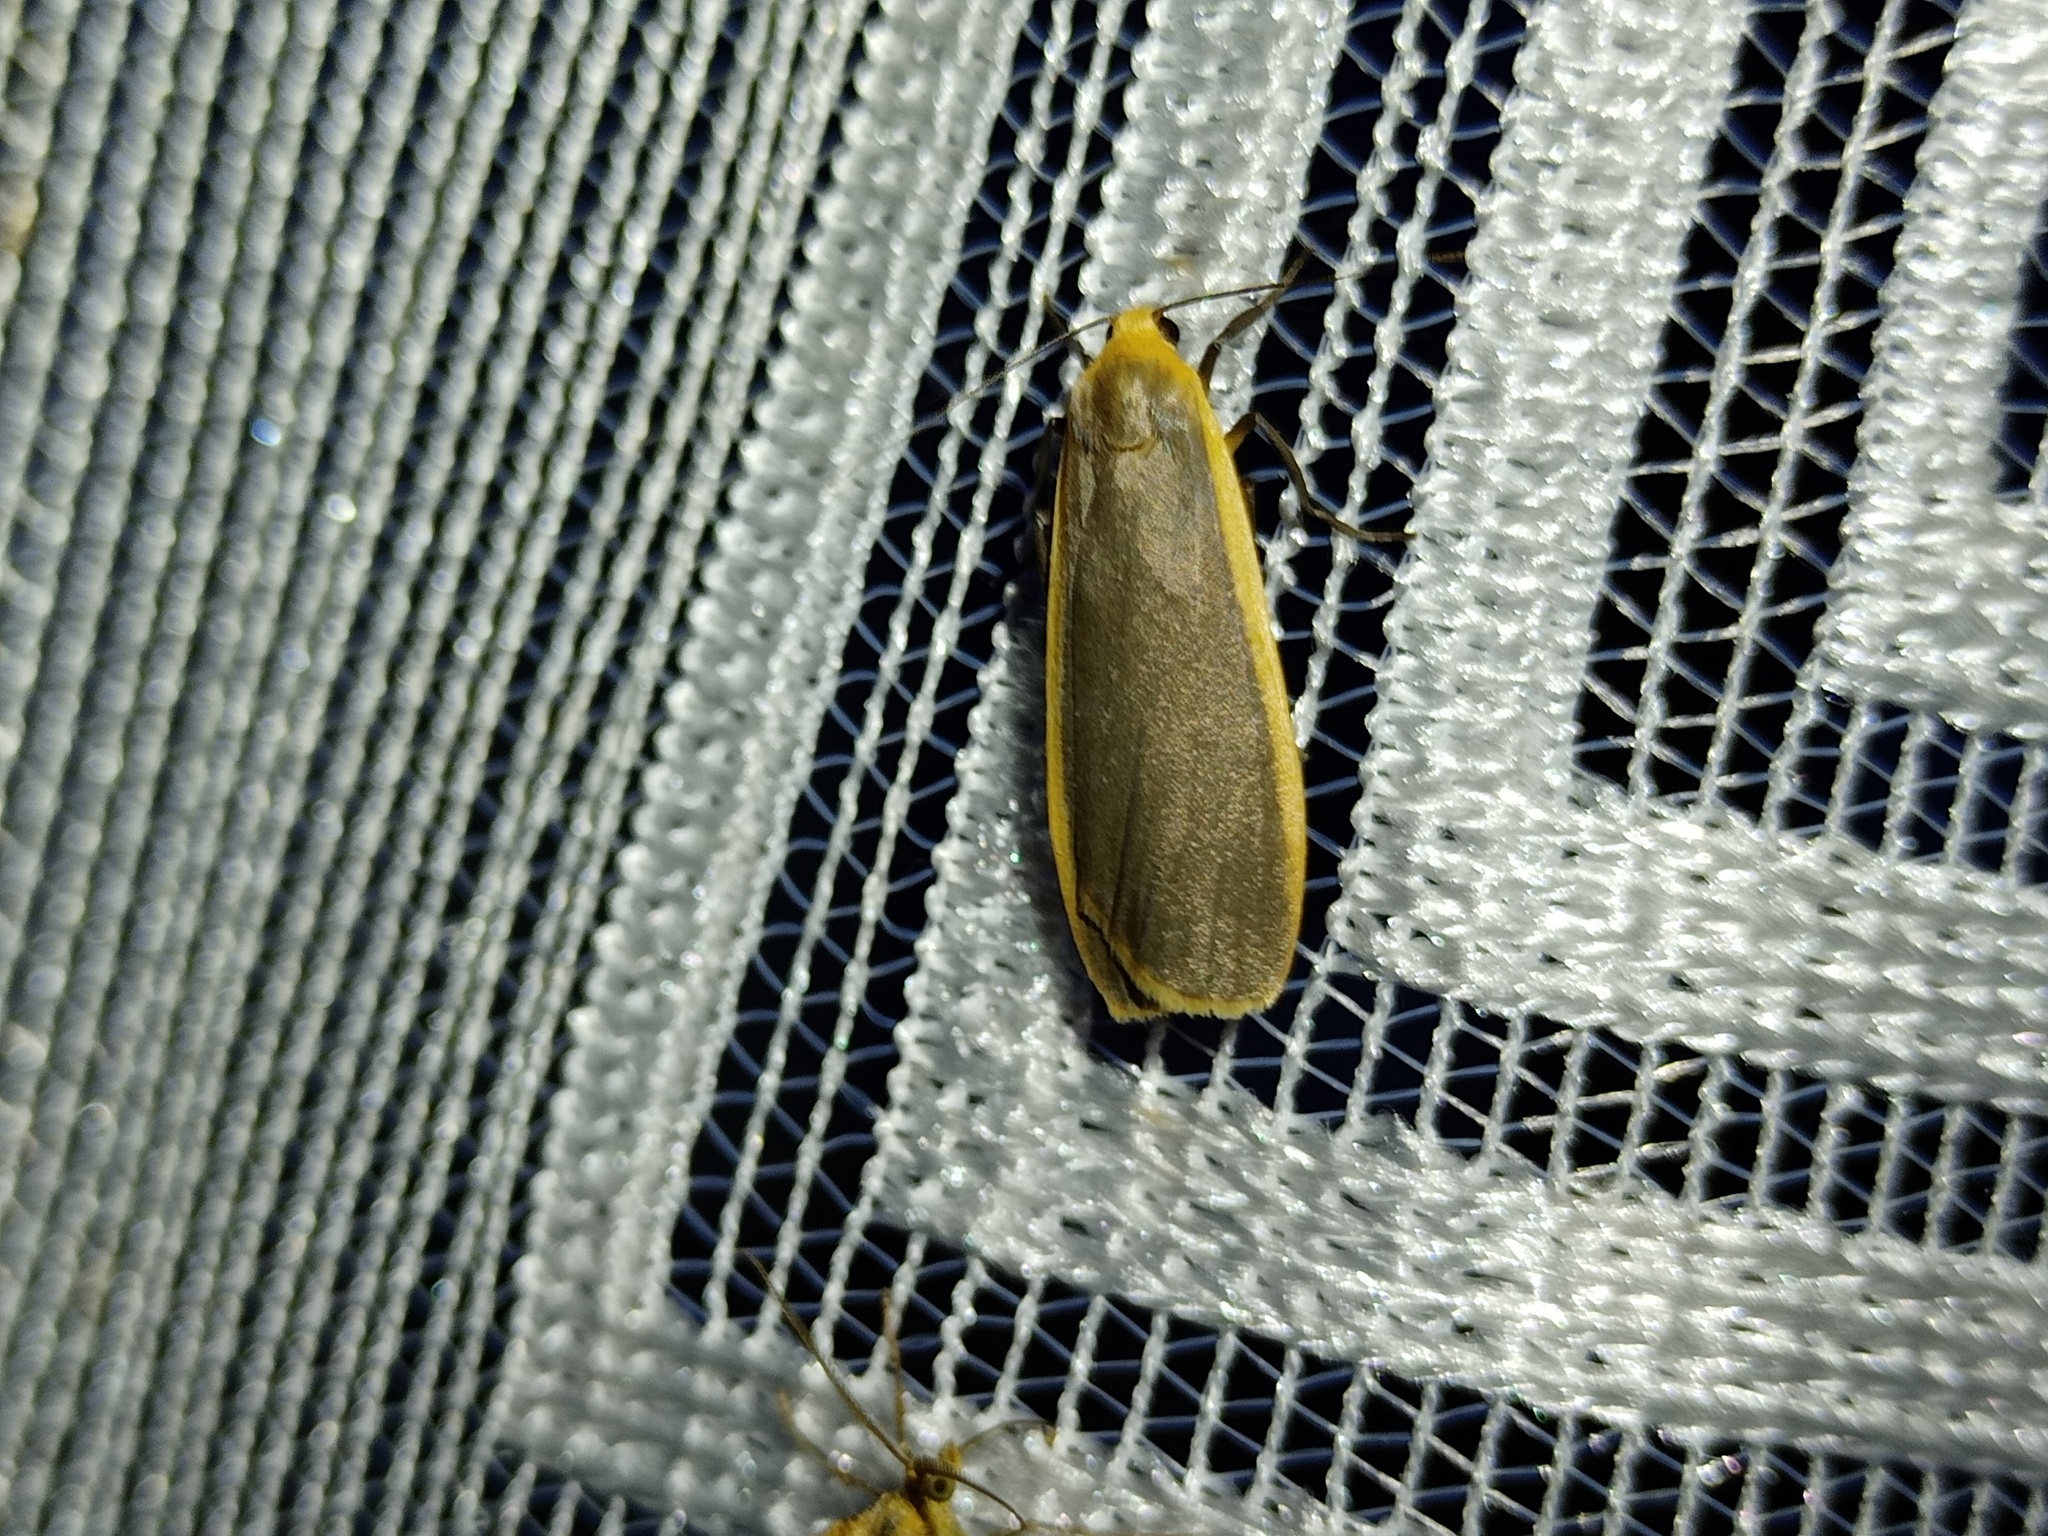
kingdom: Animalia
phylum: Arthropoda
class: Insecta
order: Lepidoptera
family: Erebidae
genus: Katha
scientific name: Katha depressa
